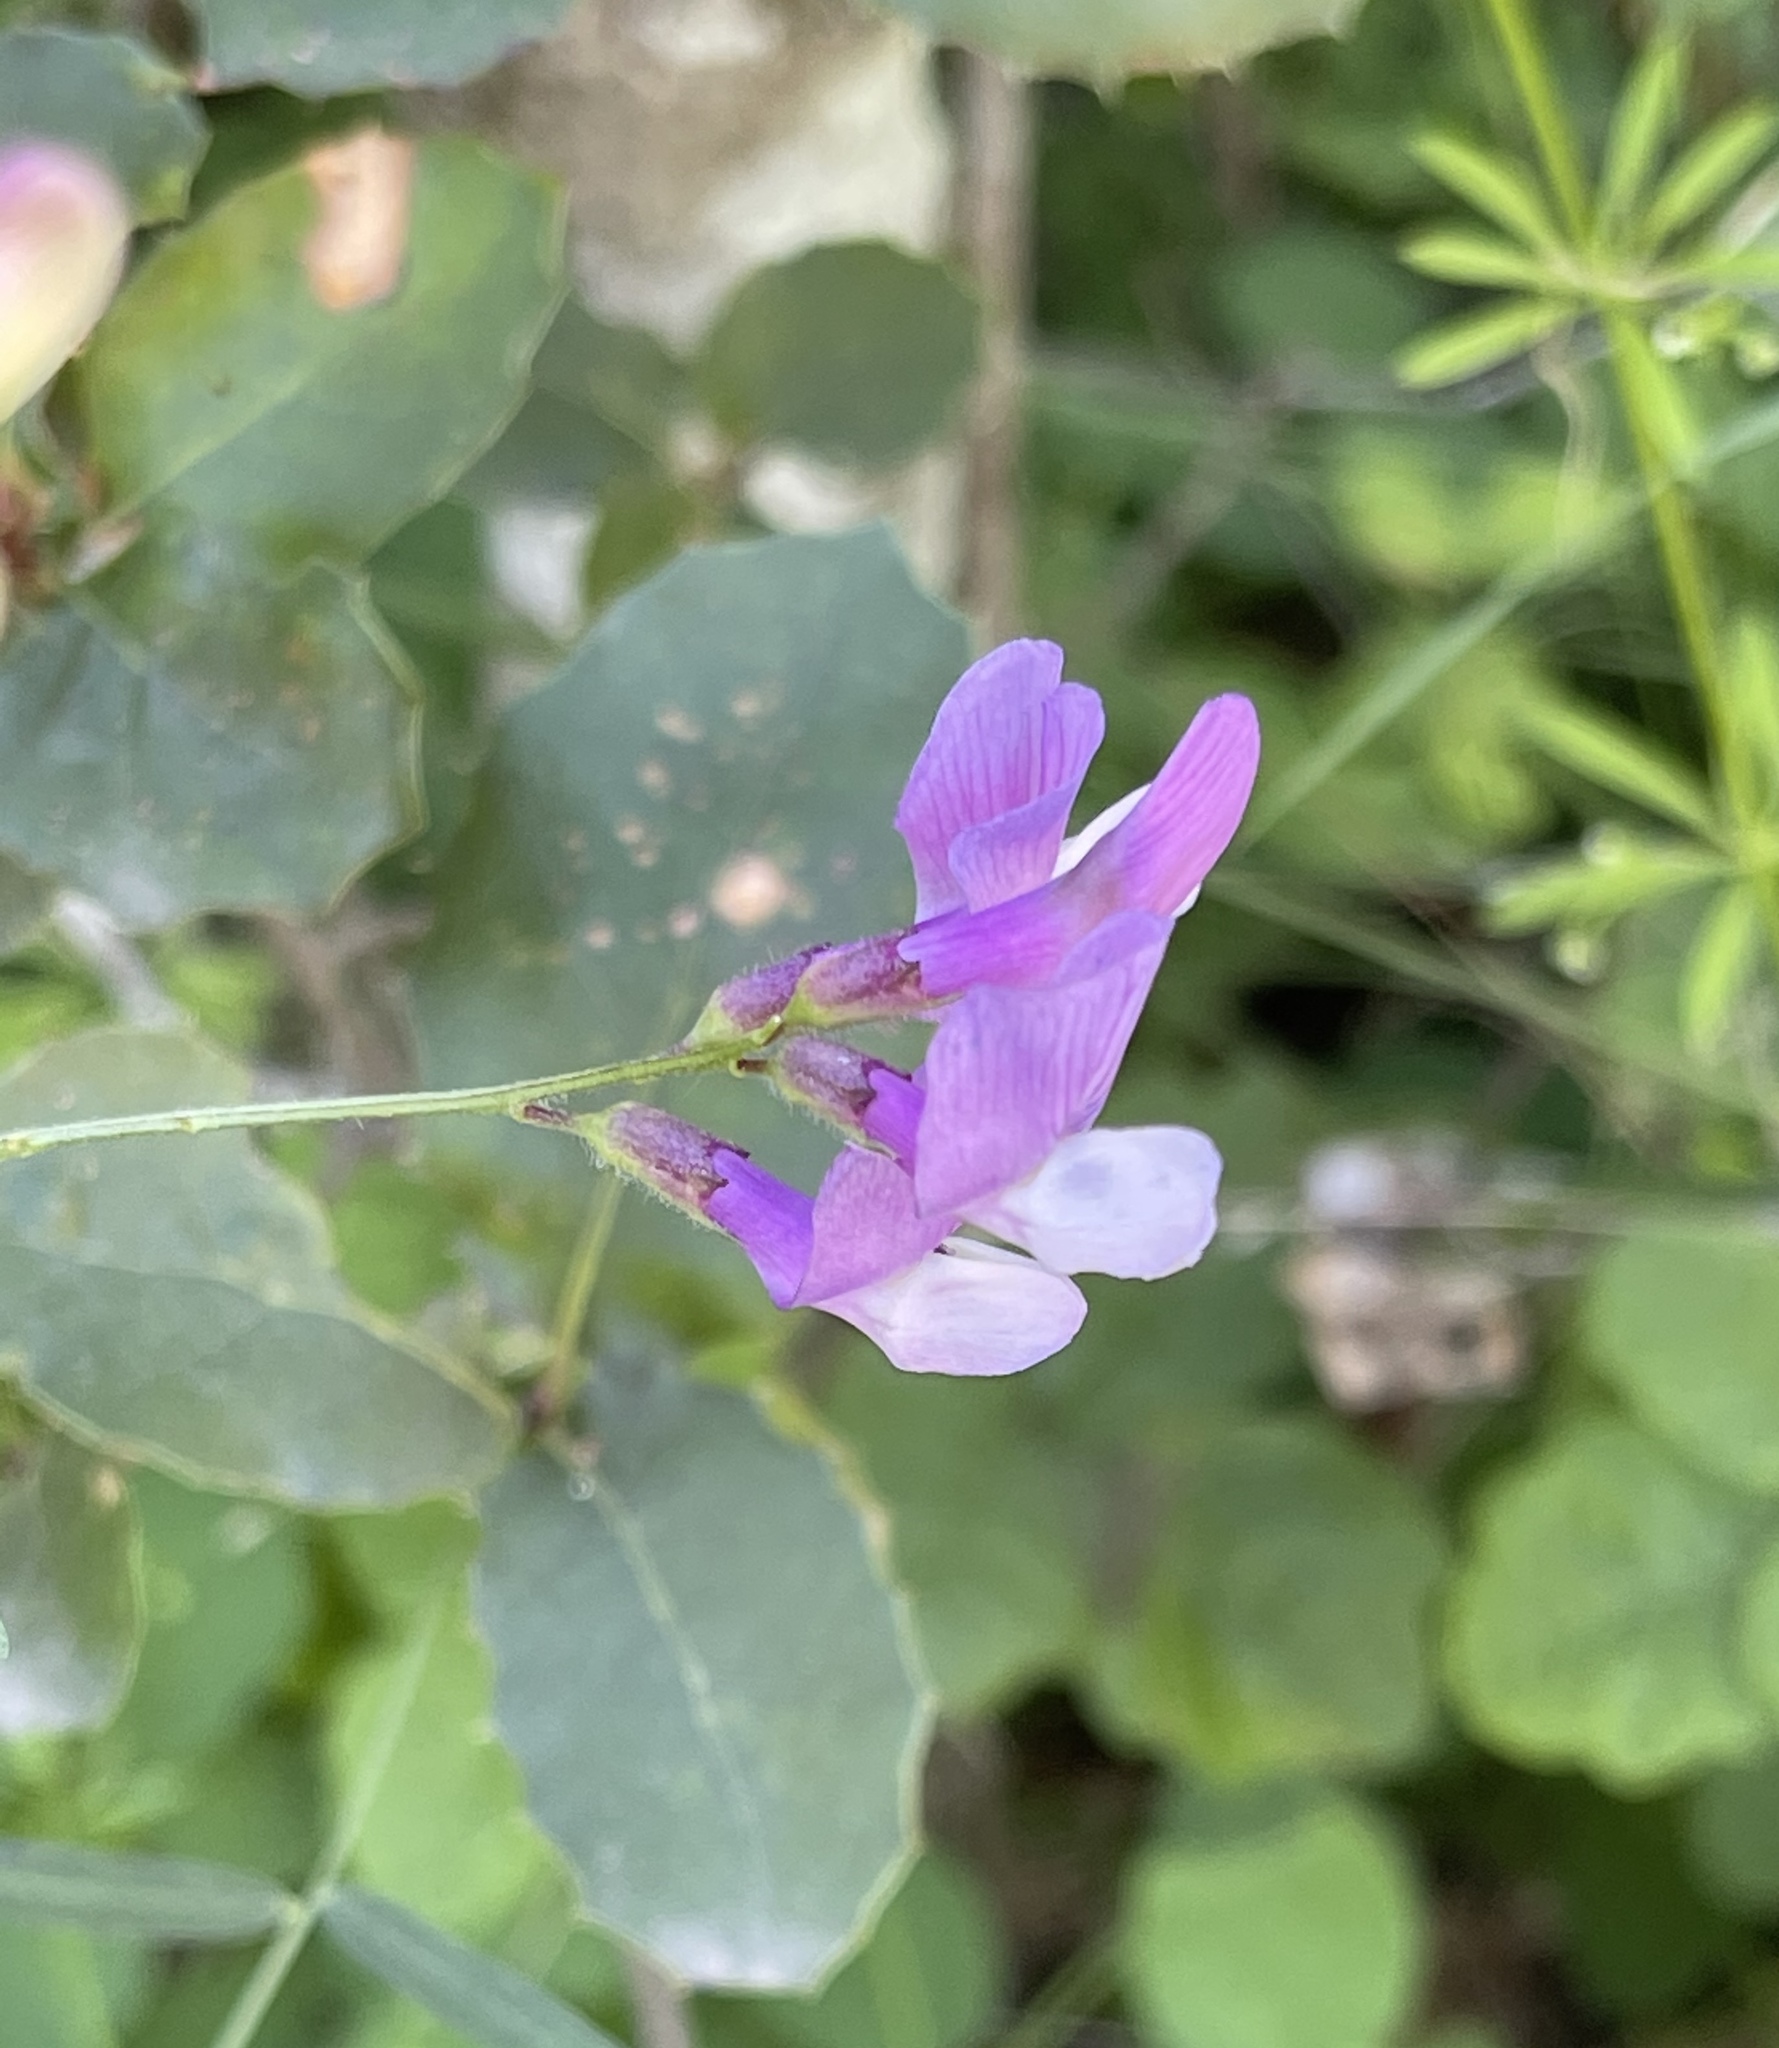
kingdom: Plantae
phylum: Tracheophyta
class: Magnoliopsida
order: Fabales
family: Fabaceae
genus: Vicia
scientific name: Vicia americana
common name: American vetch
